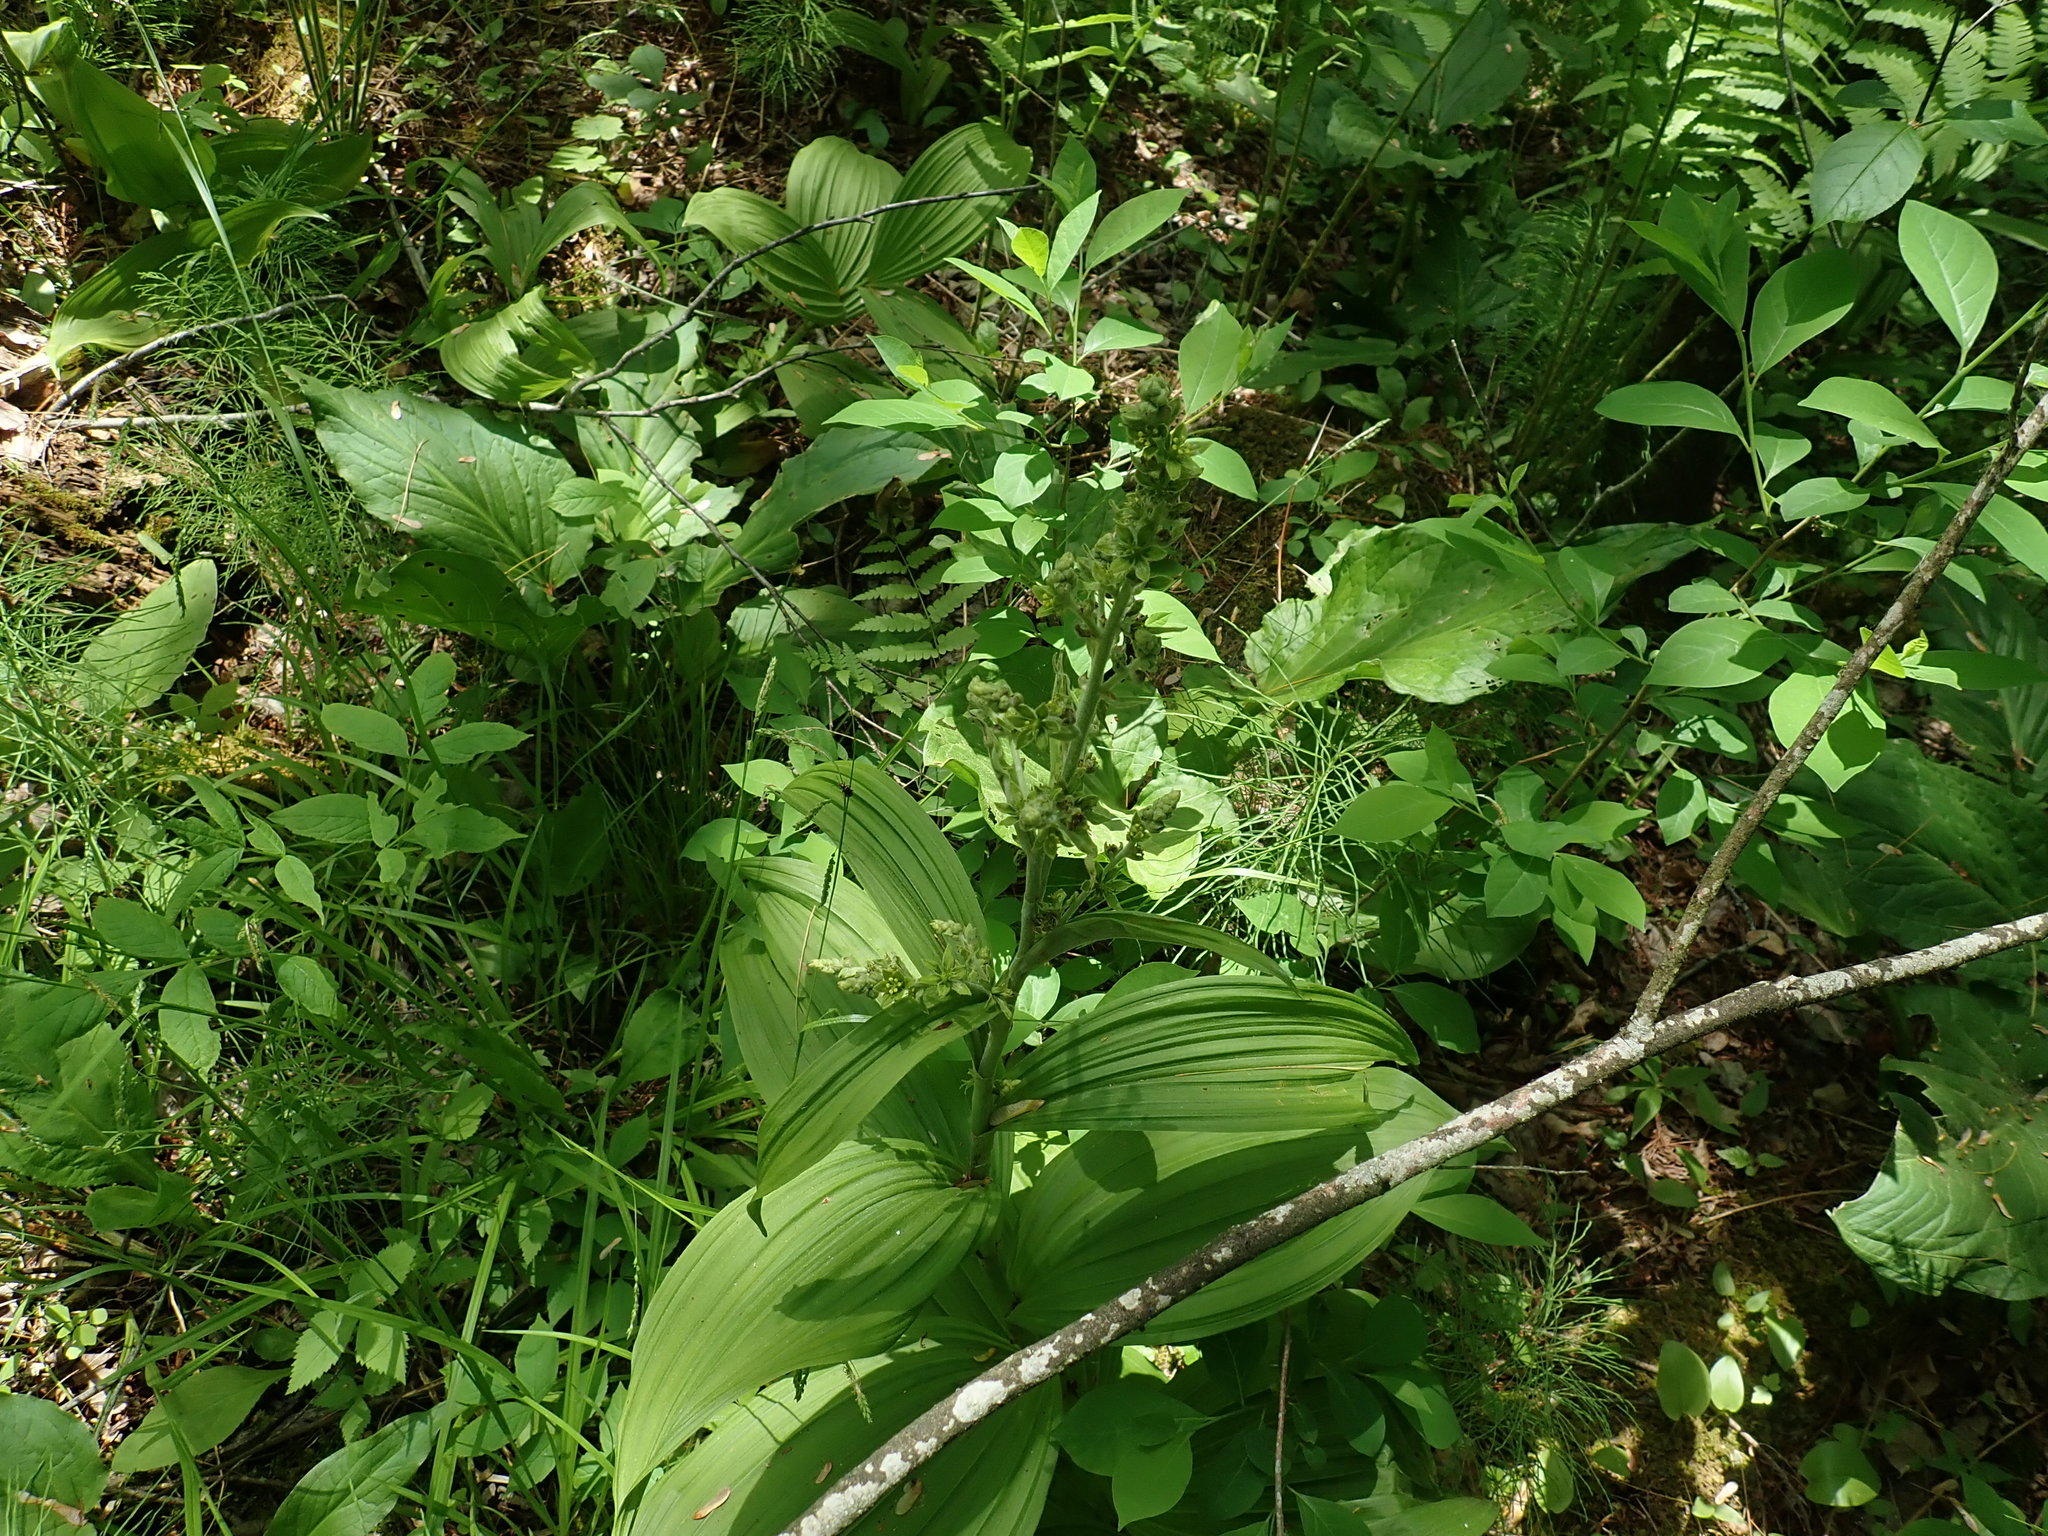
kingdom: Plantae
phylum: Tracheophyta
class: Liliopsida
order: Liliales
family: Melanthiaceae
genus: Veratrum
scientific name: Veratrum viride
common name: American false hellebore
